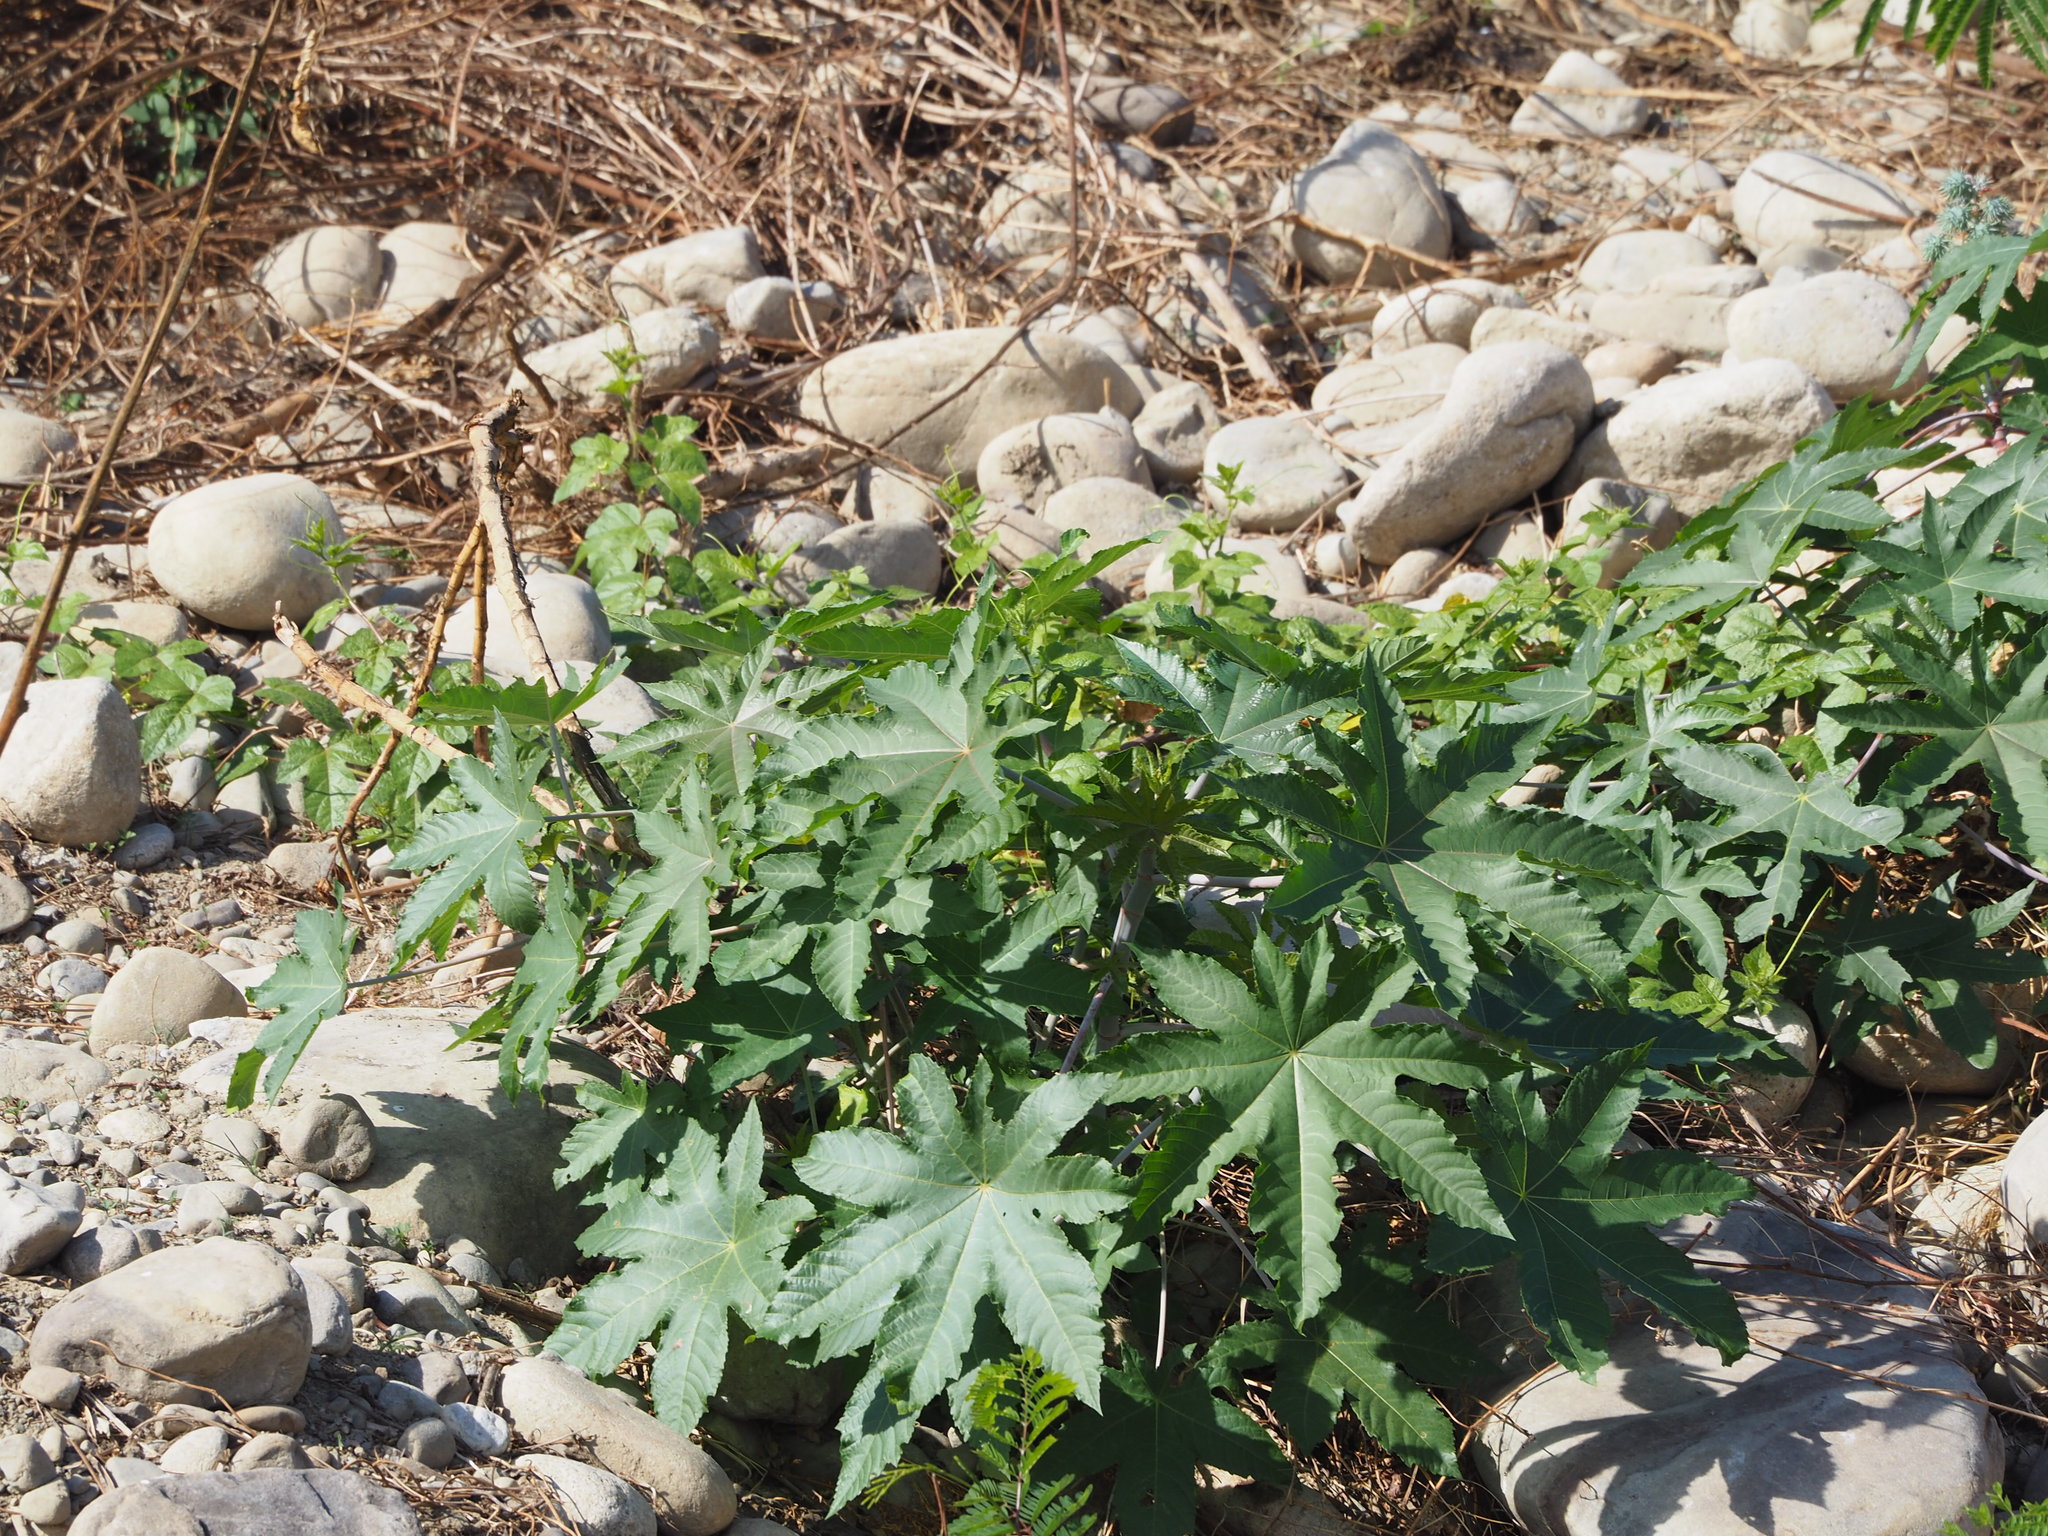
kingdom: Plantae
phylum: Tracheophyta
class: Magnoliopsida
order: Malpighiales
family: Euphorbiaceae
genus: Ricinus
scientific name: Ricinus communis
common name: Castor-oil-plant
